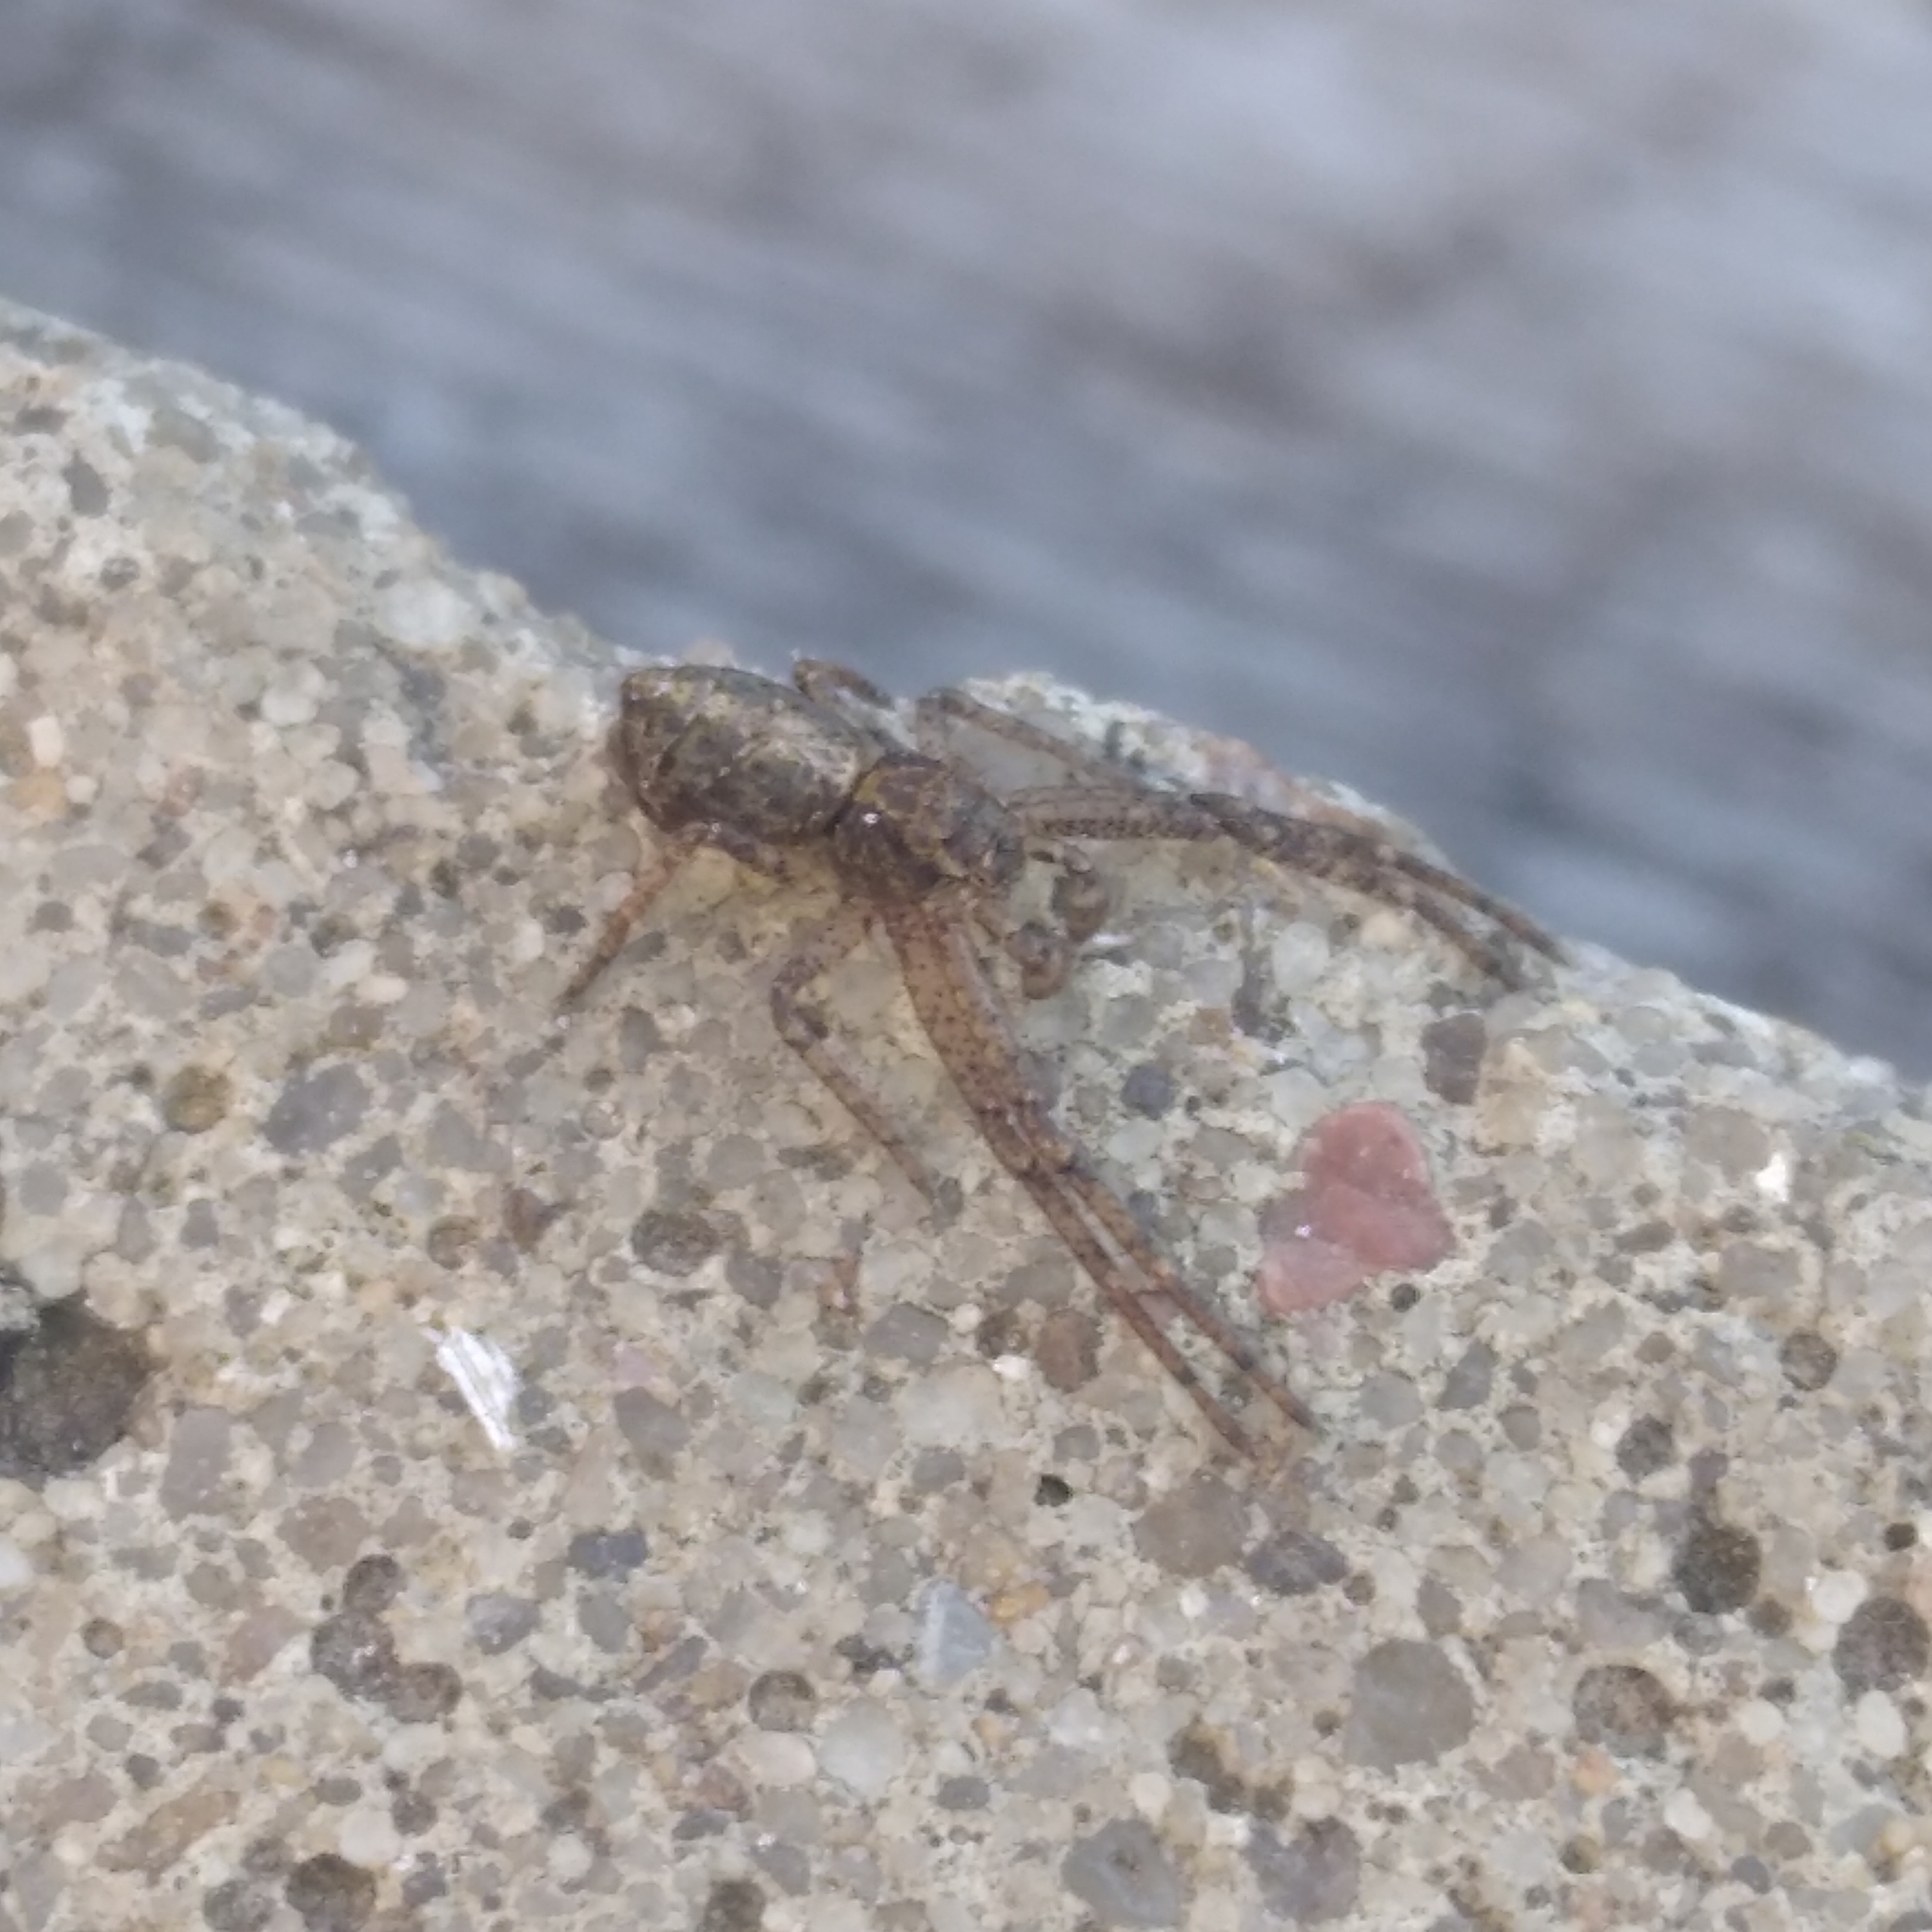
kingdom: Animalia
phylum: Arthropoda
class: Arachnida
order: Araneae
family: Thomisidae
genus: Tmarus
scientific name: Tmarus piger
